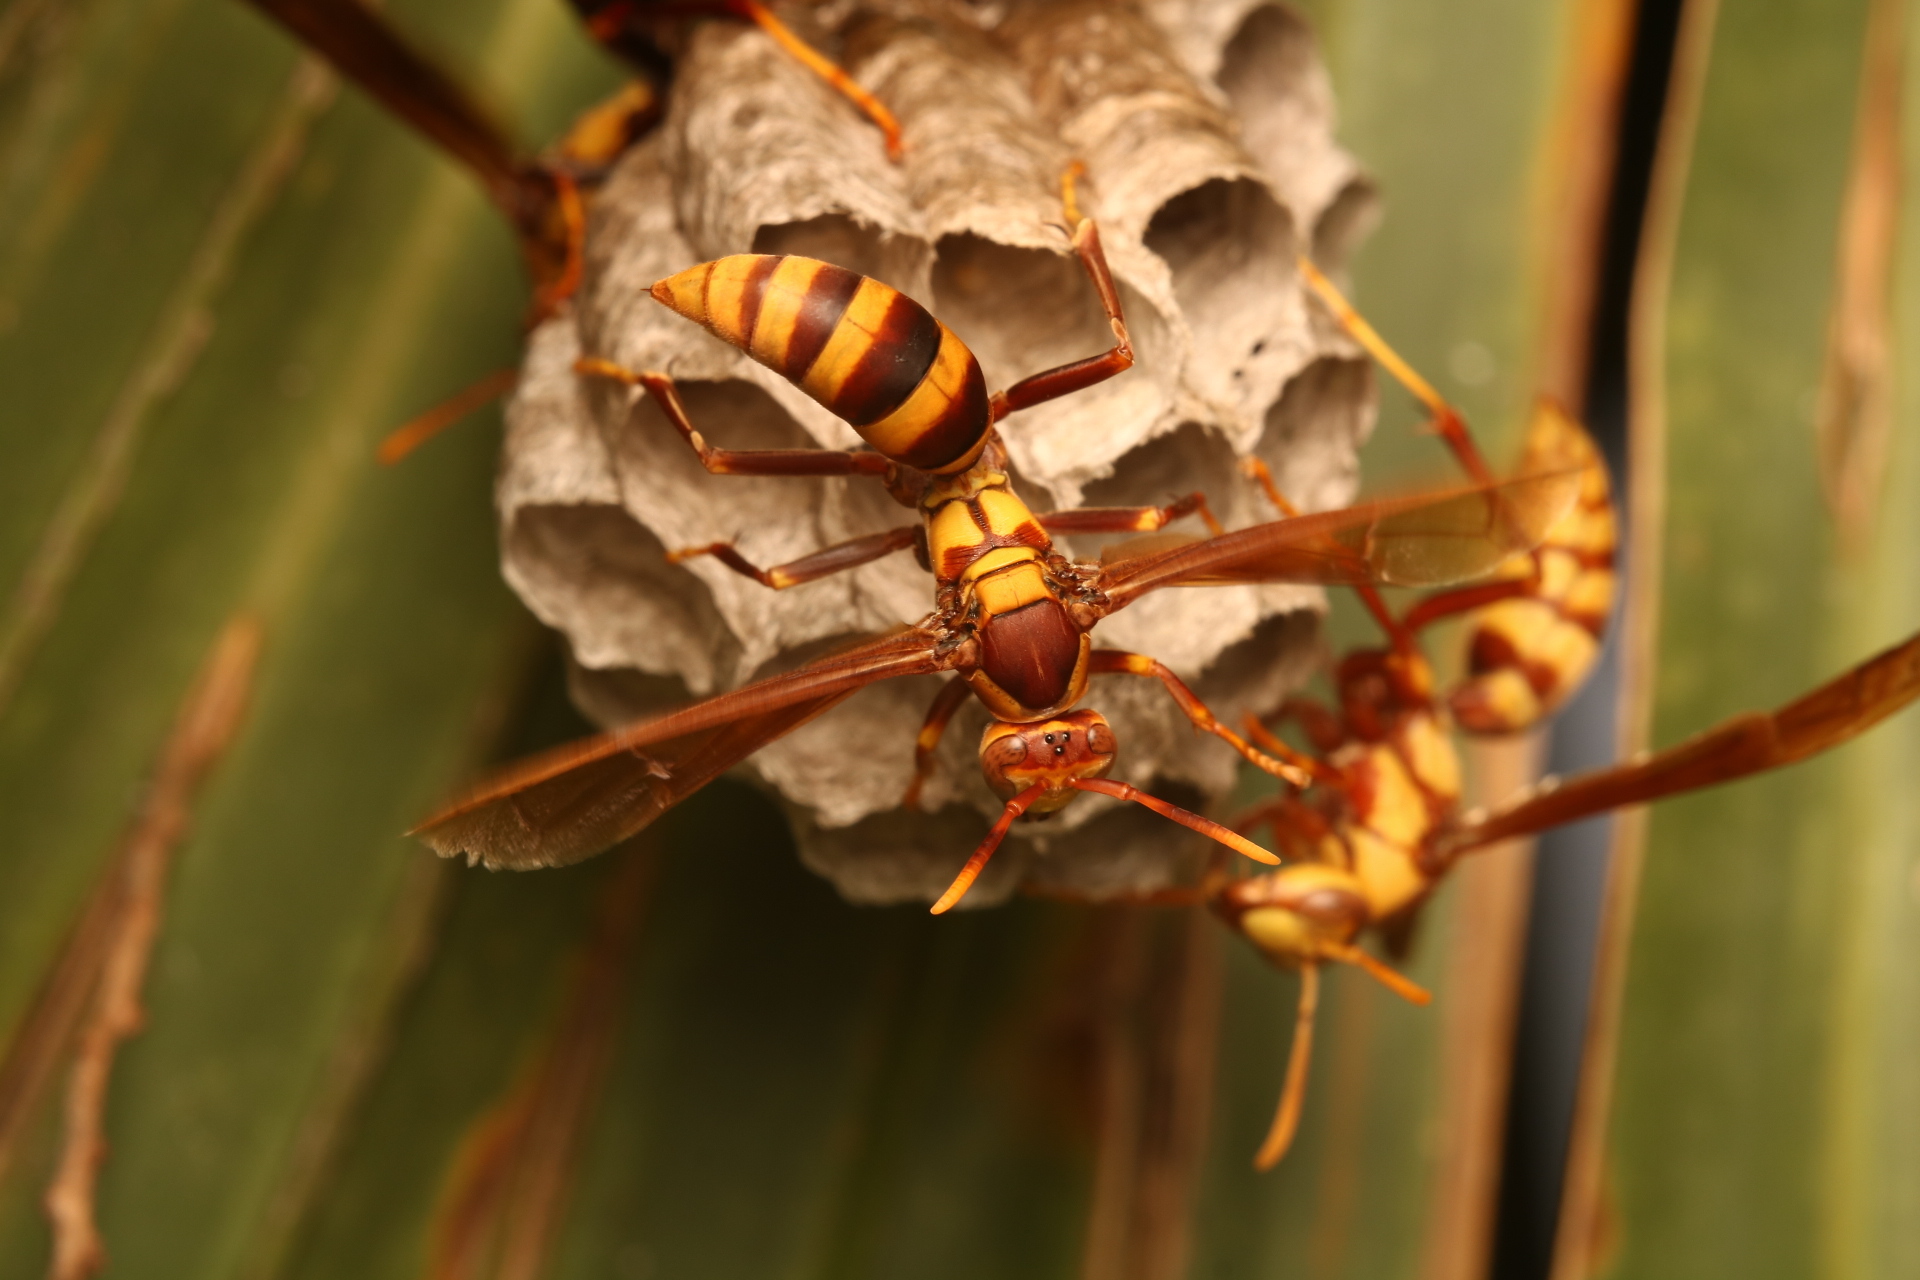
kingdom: Animalia
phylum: Arthropoda
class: Insecta
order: Hymenoptera
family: Eumenidae
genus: Polistes
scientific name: Polistes major
